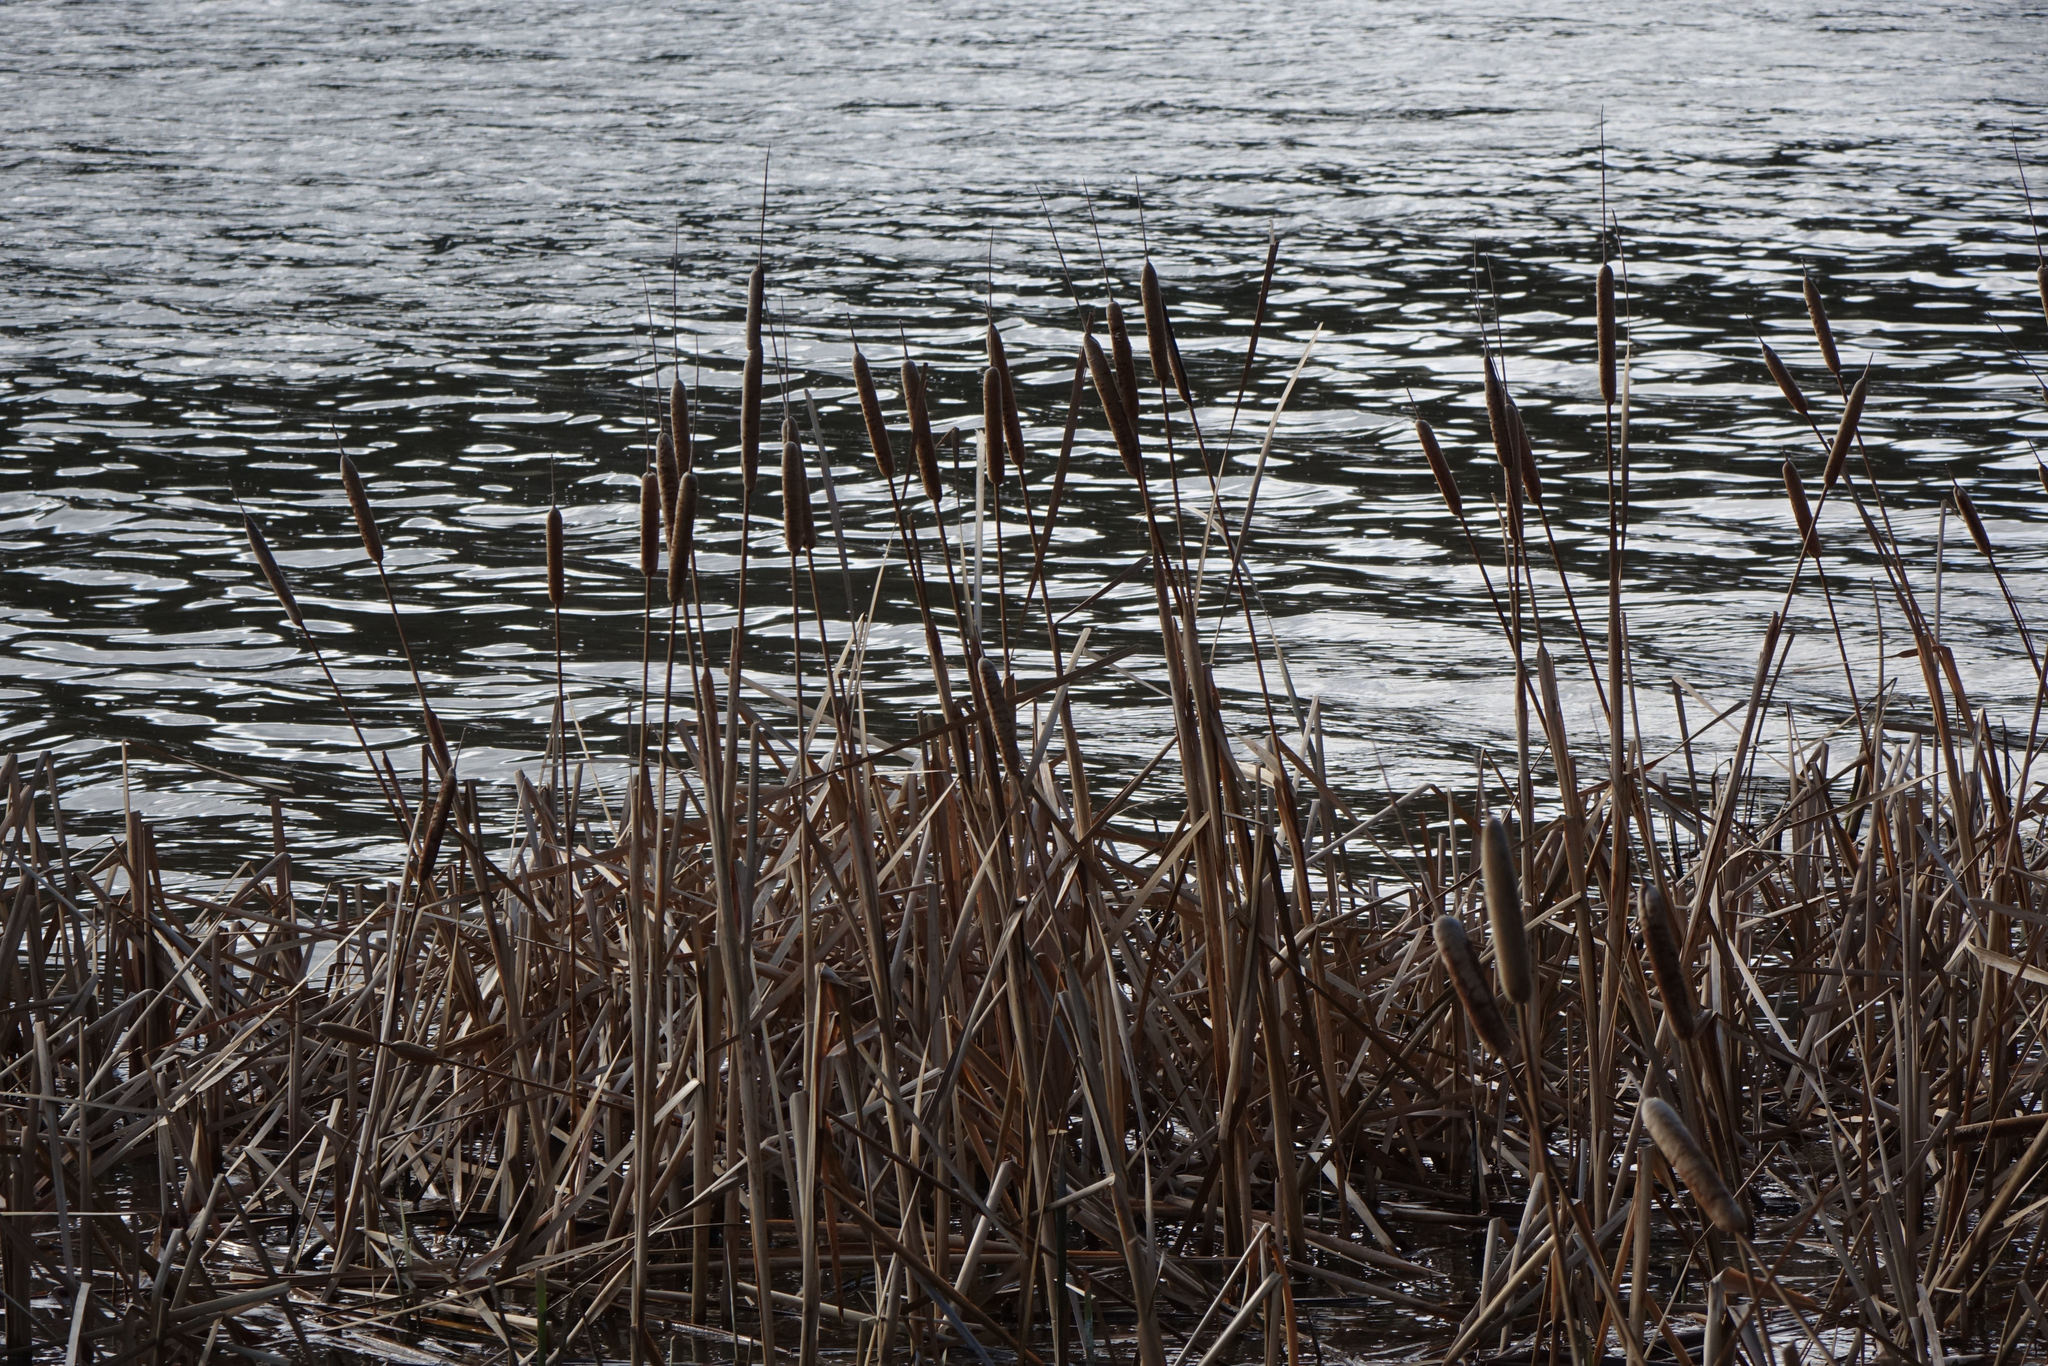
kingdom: Plantae
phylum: Tracheophyta
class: Liliopsida
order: Poales
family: Typhaceae
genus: Typha
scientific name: Typha orientalis
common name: Bullrush
